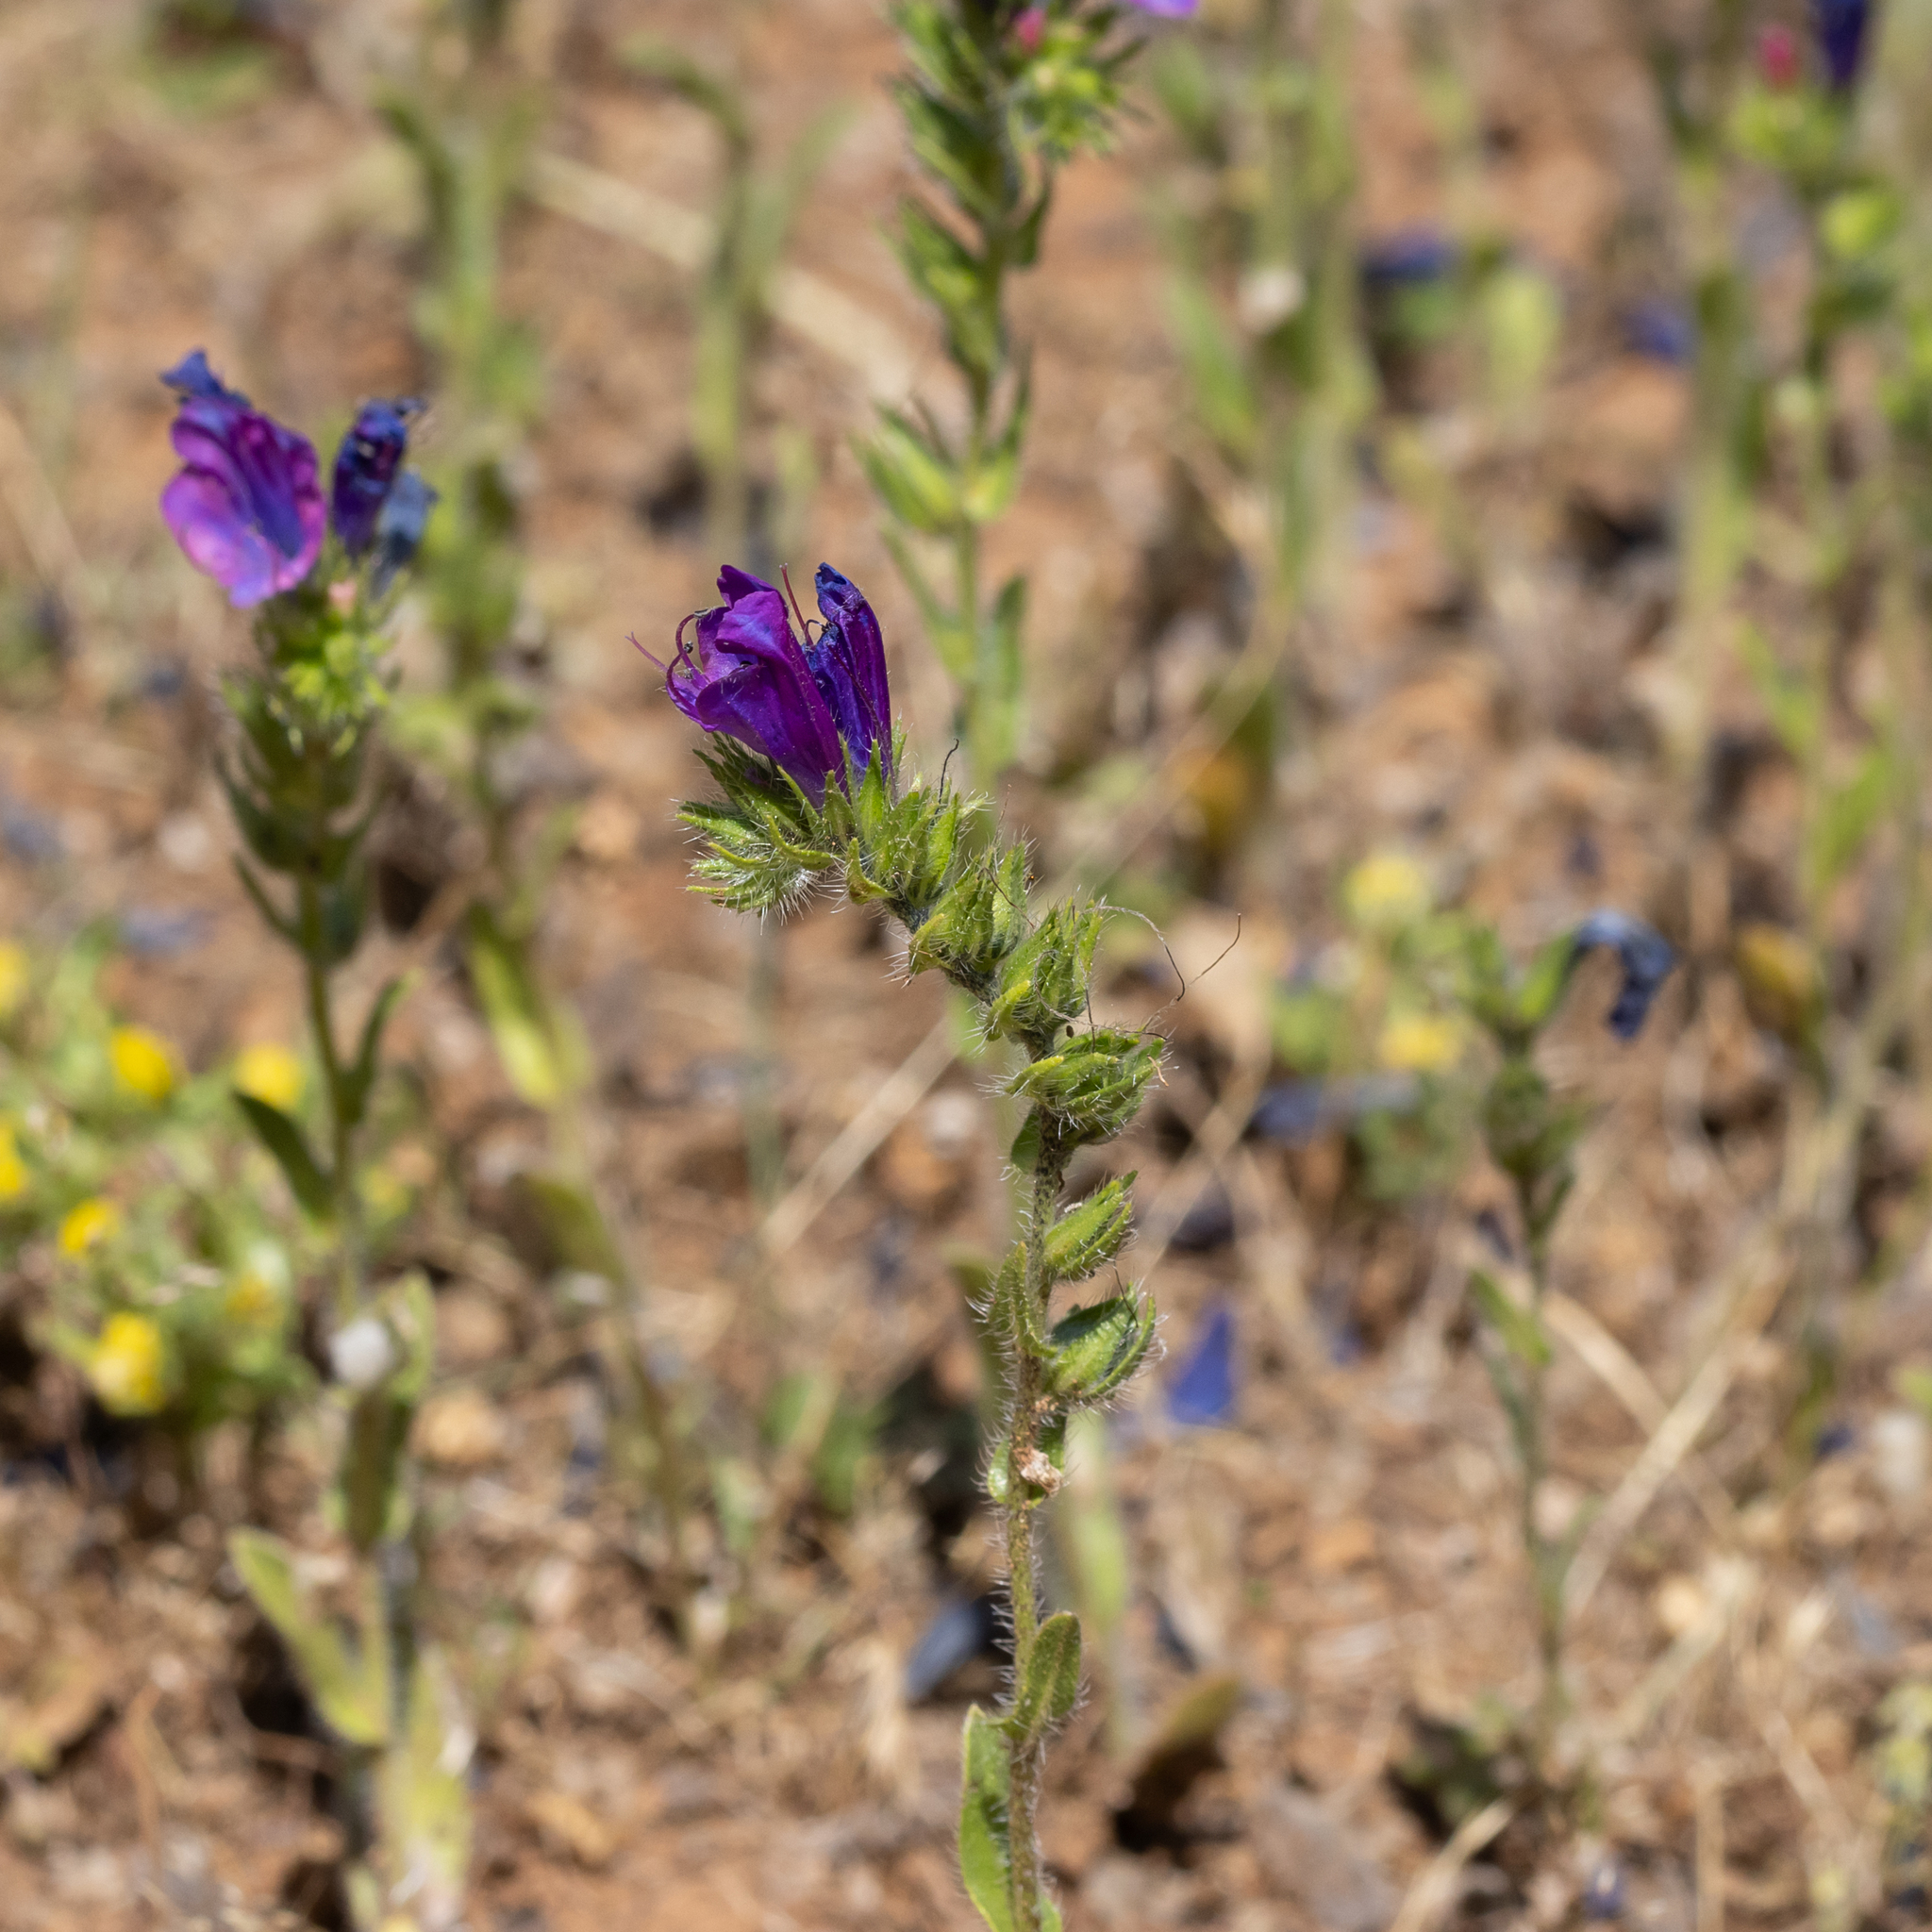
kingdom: Plantae
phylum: Tracheophyta
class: Magnoliopsida
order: Boraginales
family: Boraginaceae
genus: Echium
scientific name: Echium plantagineum
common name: Purple viper's-bugloss
